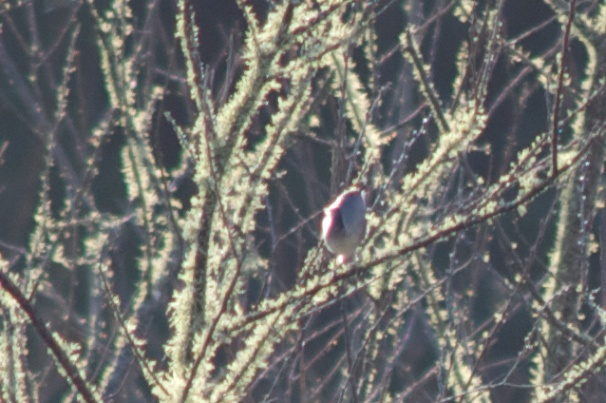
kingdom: Animalia
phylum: Chordata
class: Aves
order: Passeriformes
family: Acanthizidae
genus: Gerygone
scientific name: Gerygone igata
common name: Grey gerygone
